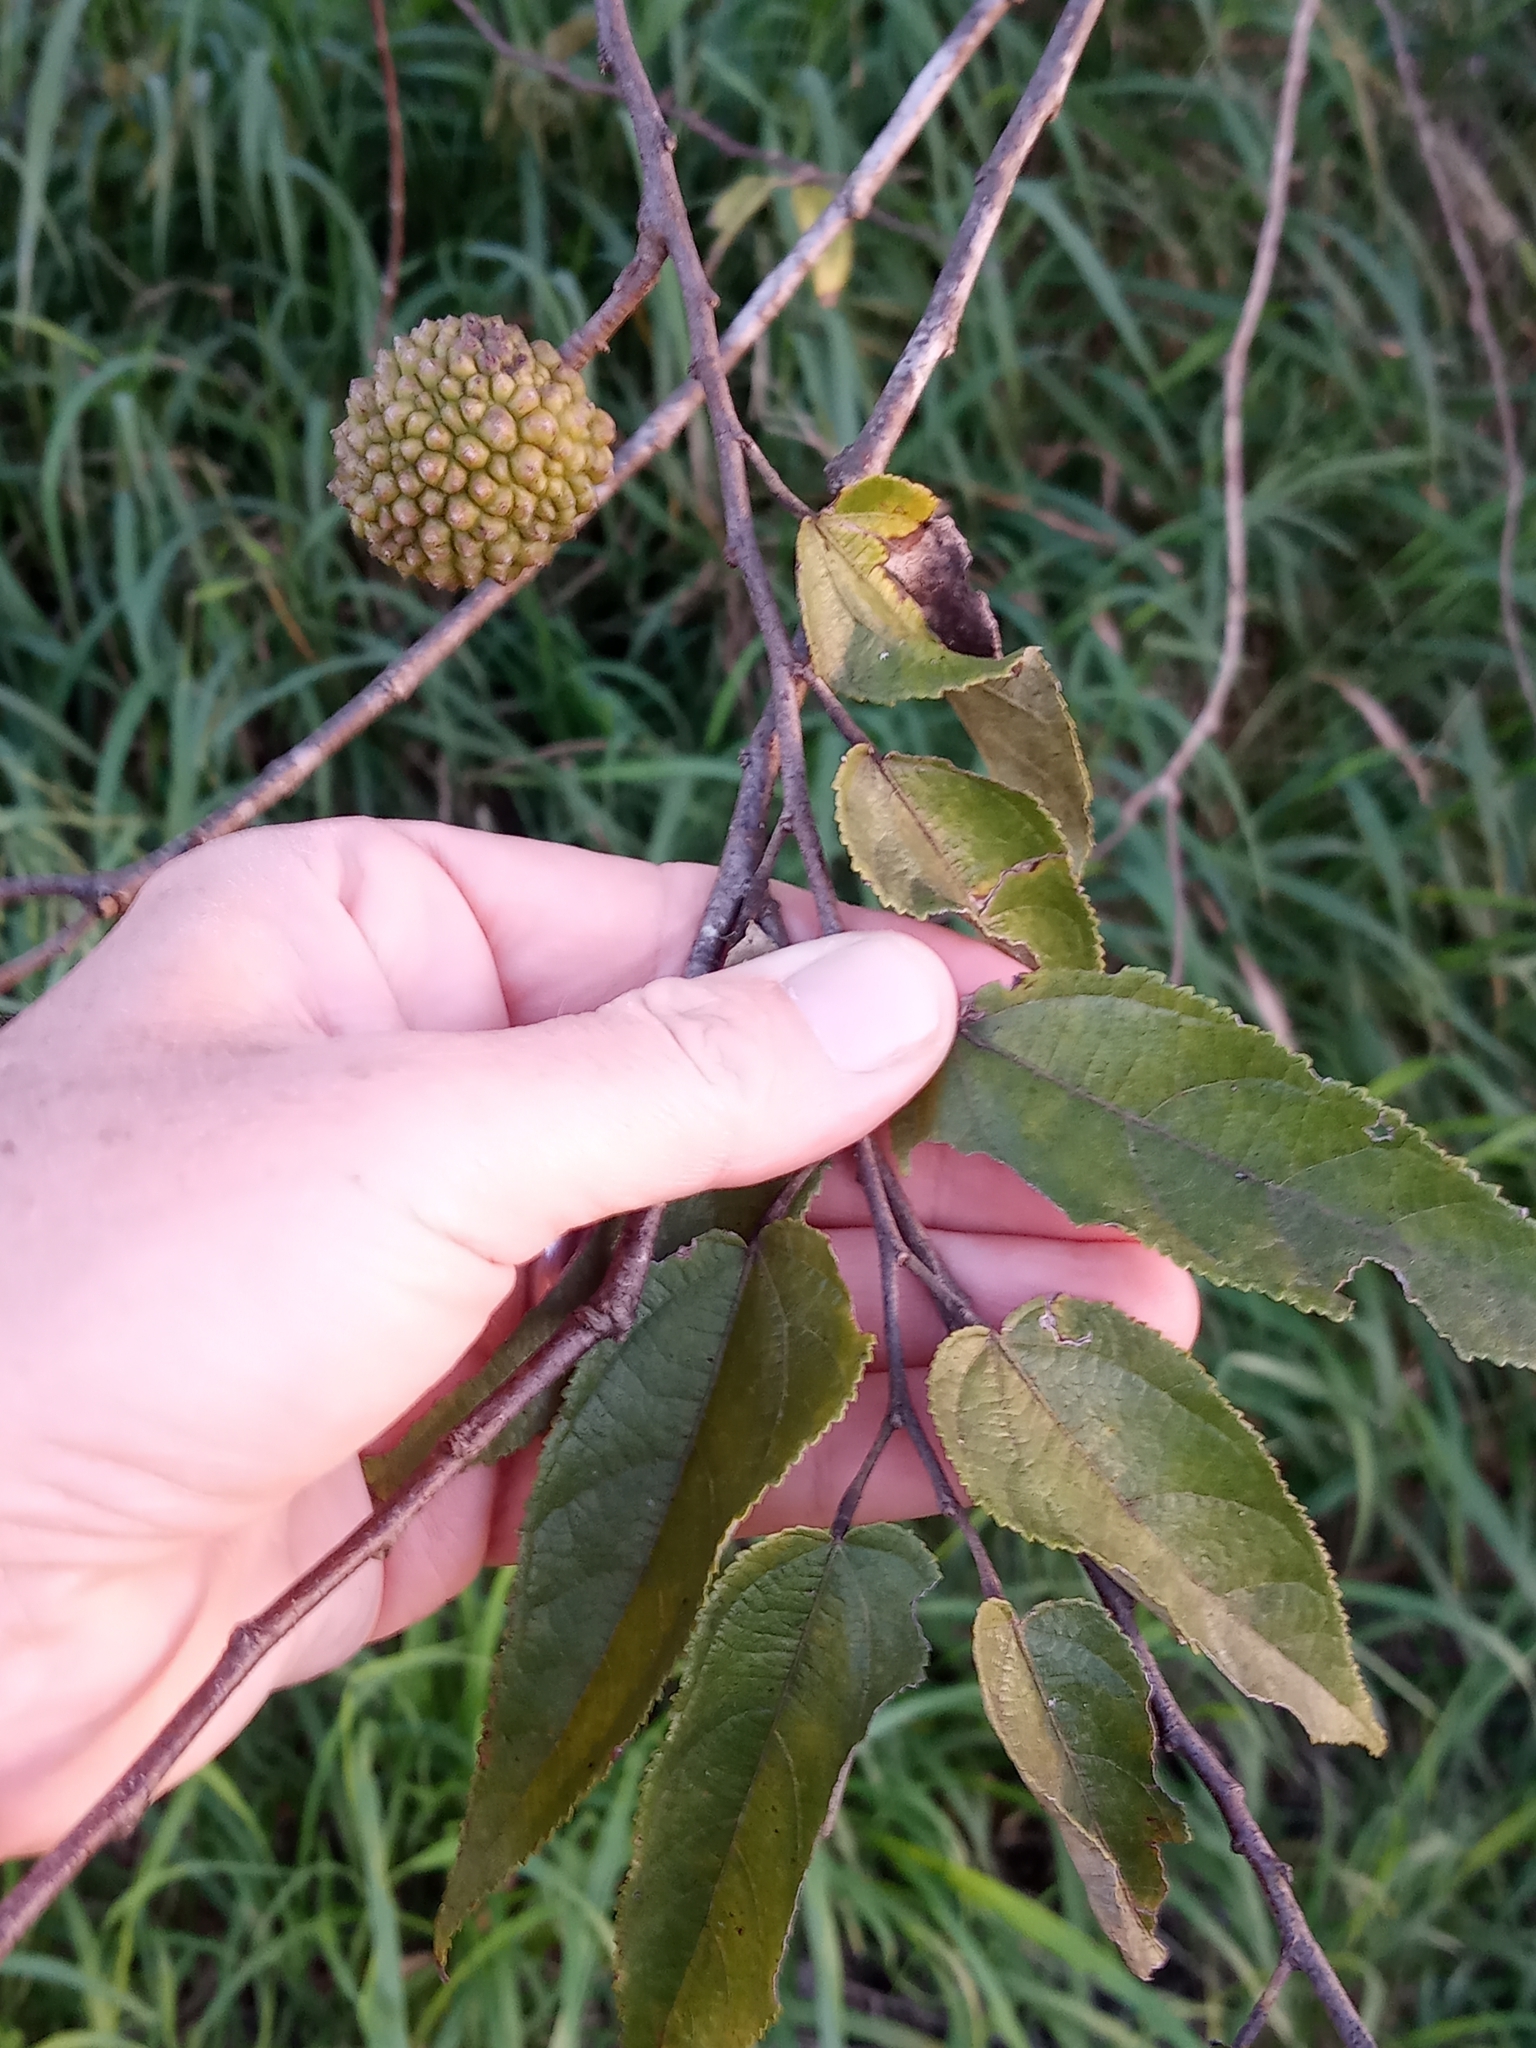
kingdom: Plantae
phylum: Tracheophyta
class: Magnoliopsida
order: Malvales
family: Malvaceae
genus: Guazuma
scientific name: Guazuma ulmifolia
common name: Bastard-cedar
